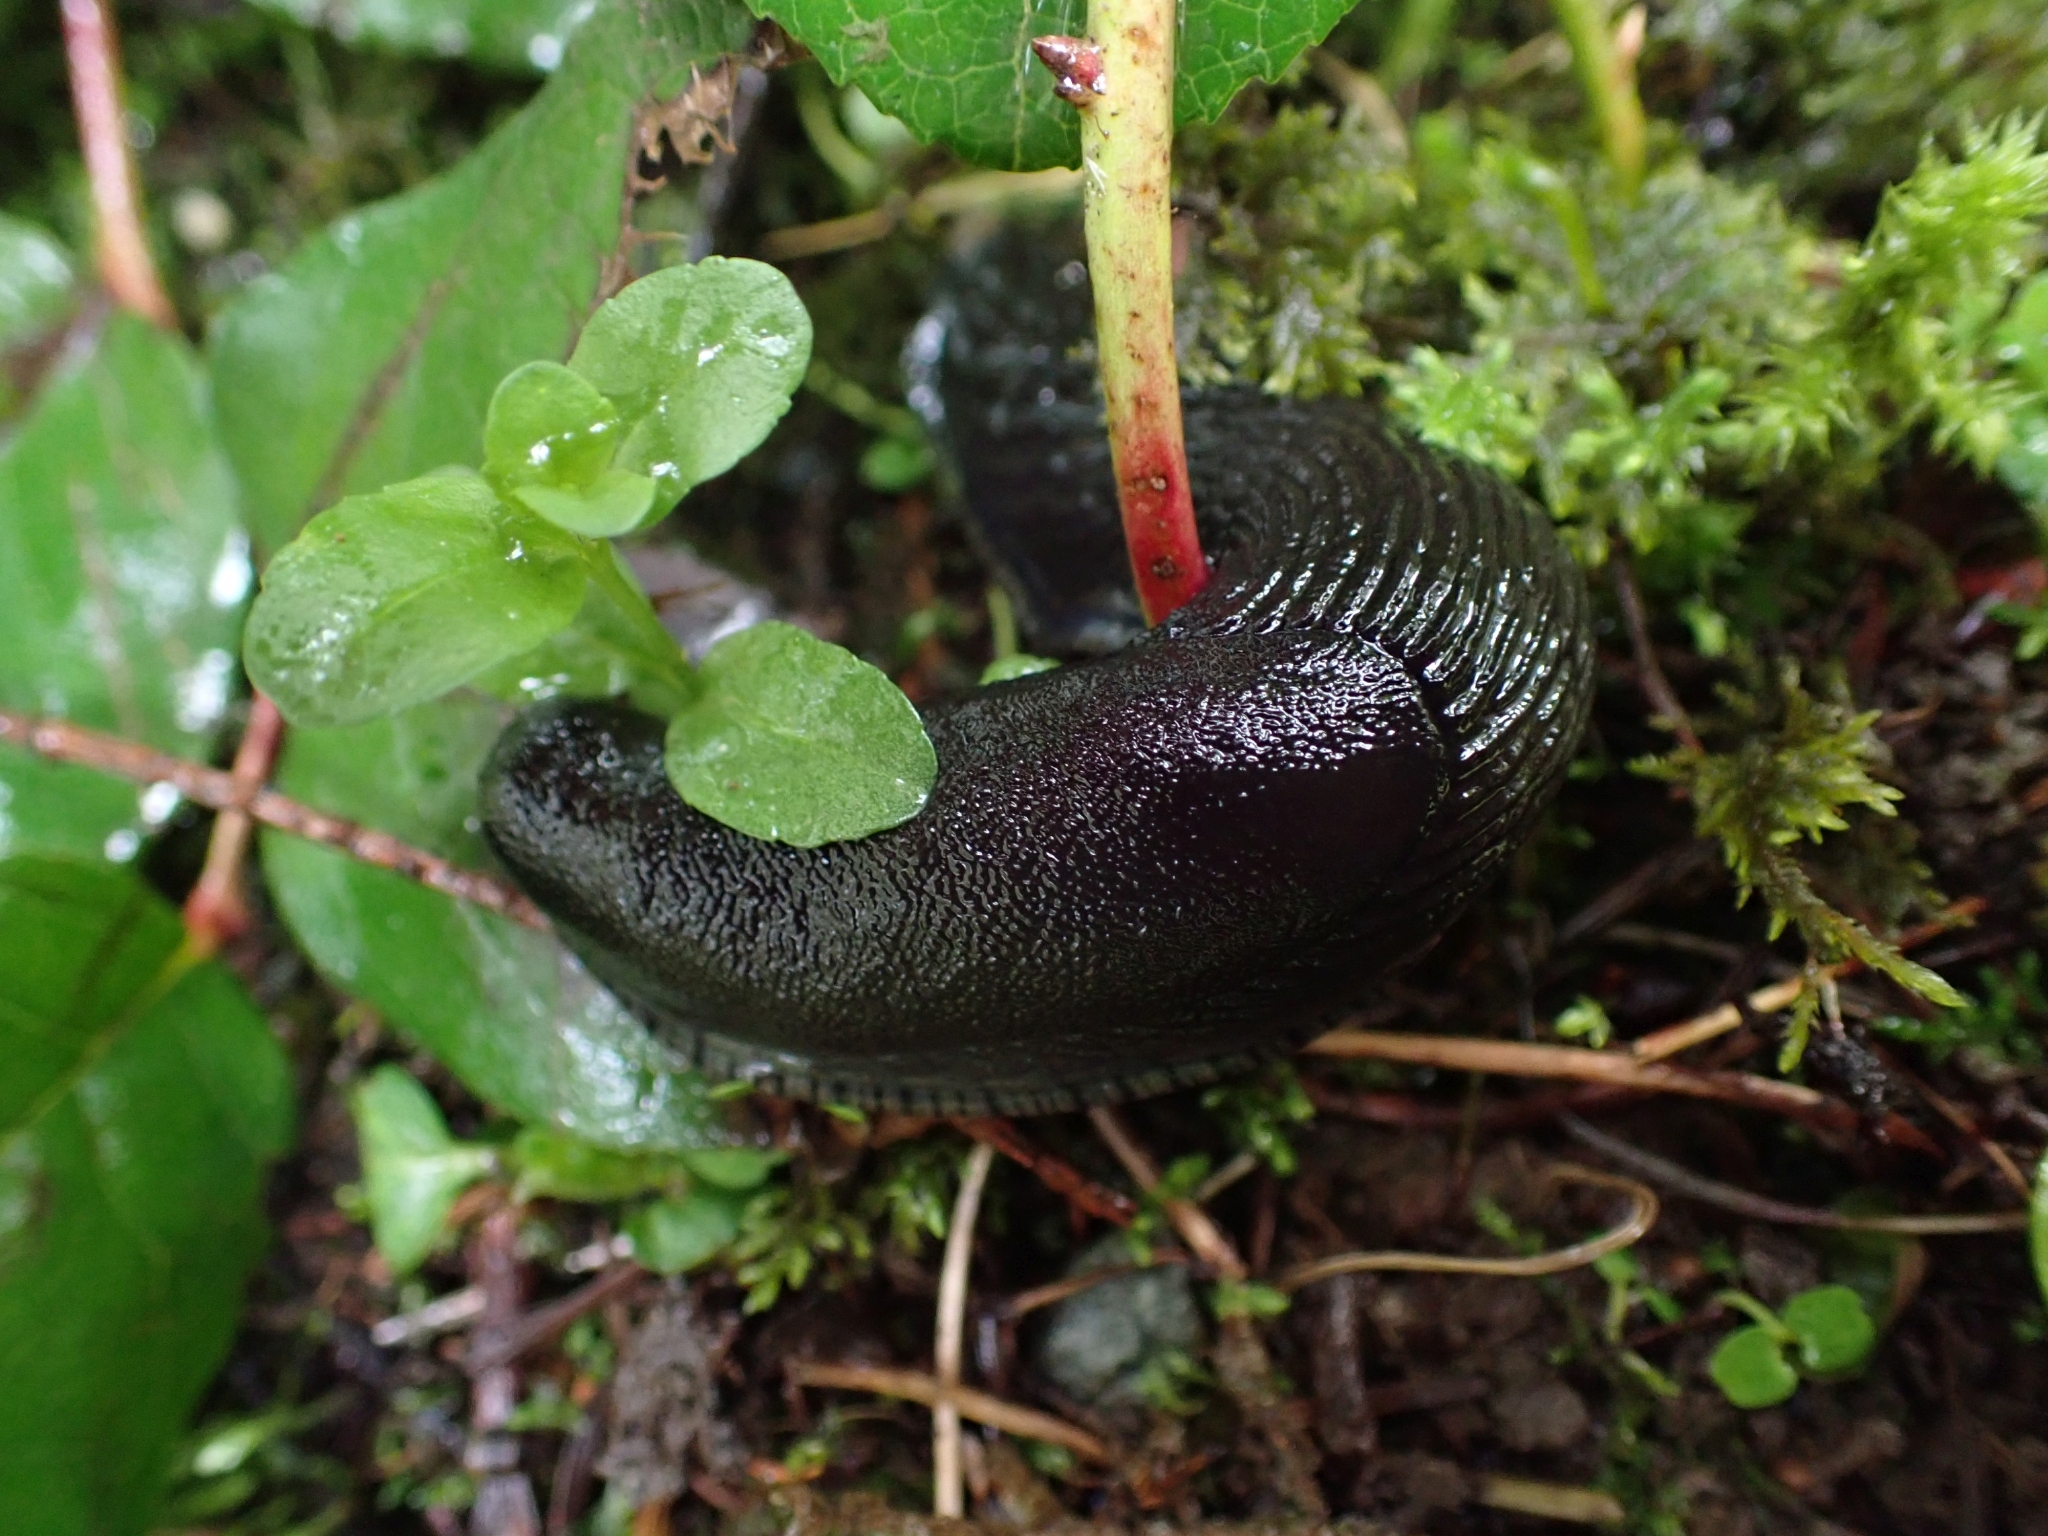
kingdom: Animalia
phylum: Mollusca
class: Gastropoda
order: Stylommatophora
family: Arionidae
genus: Arion
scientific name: Arion
